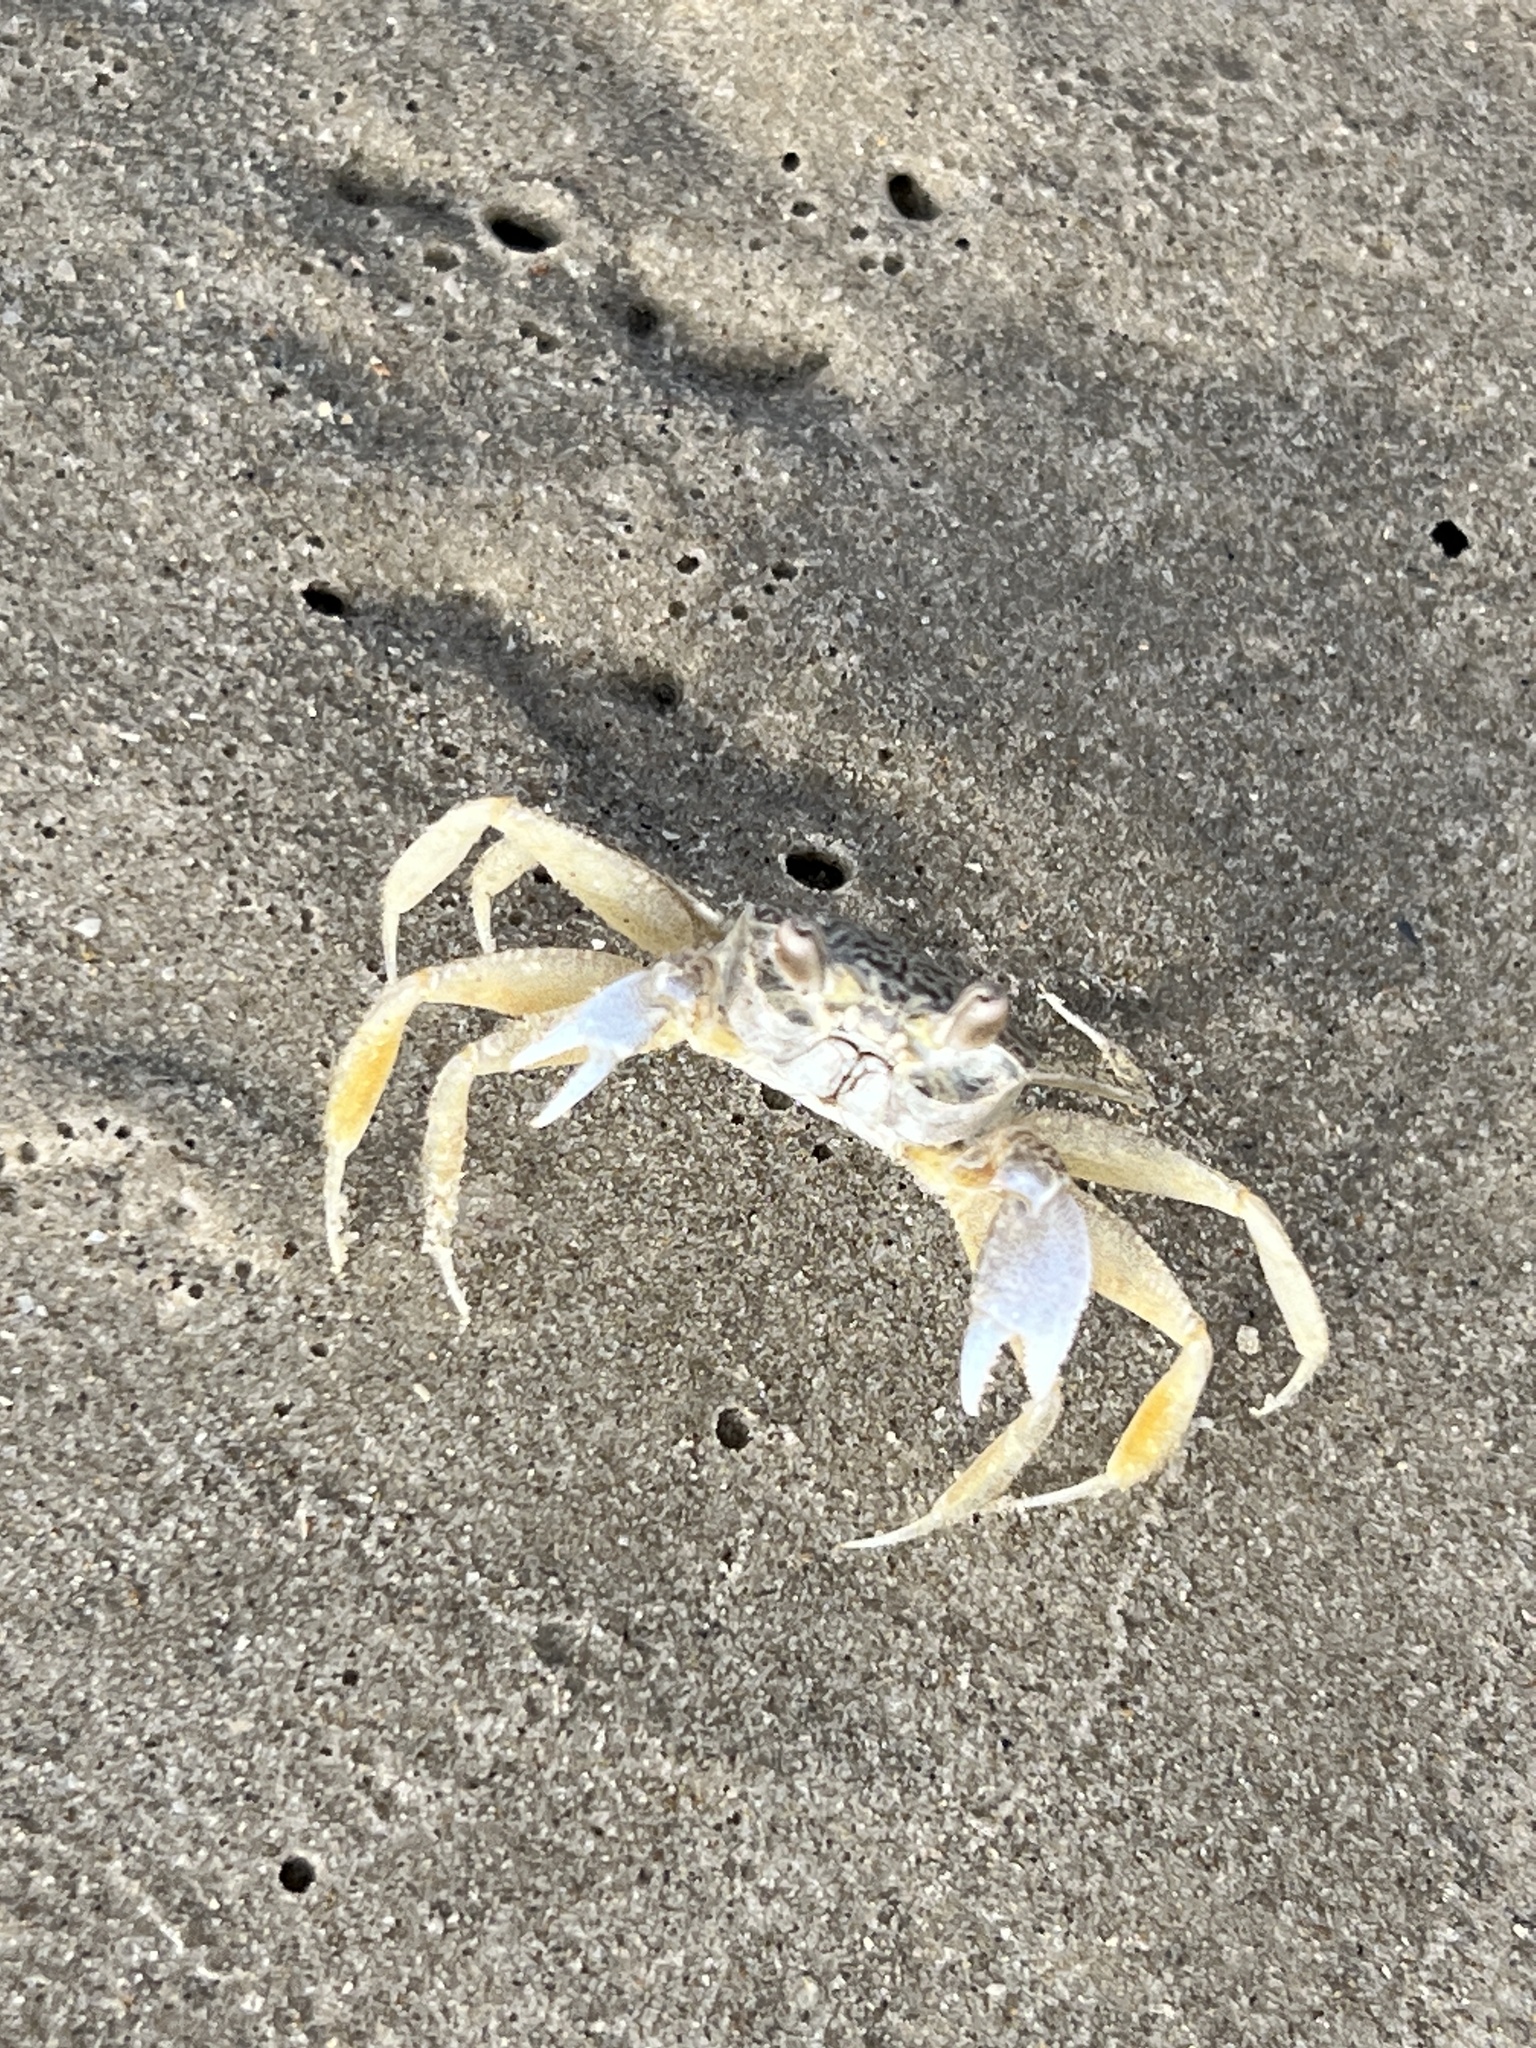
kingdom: Animalia
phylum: Arthropoda
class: Malacostraca
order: Decapoda
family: Ocypodidae
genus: Ocypode
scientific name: Ocypode quadrata
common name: Ghost crab
